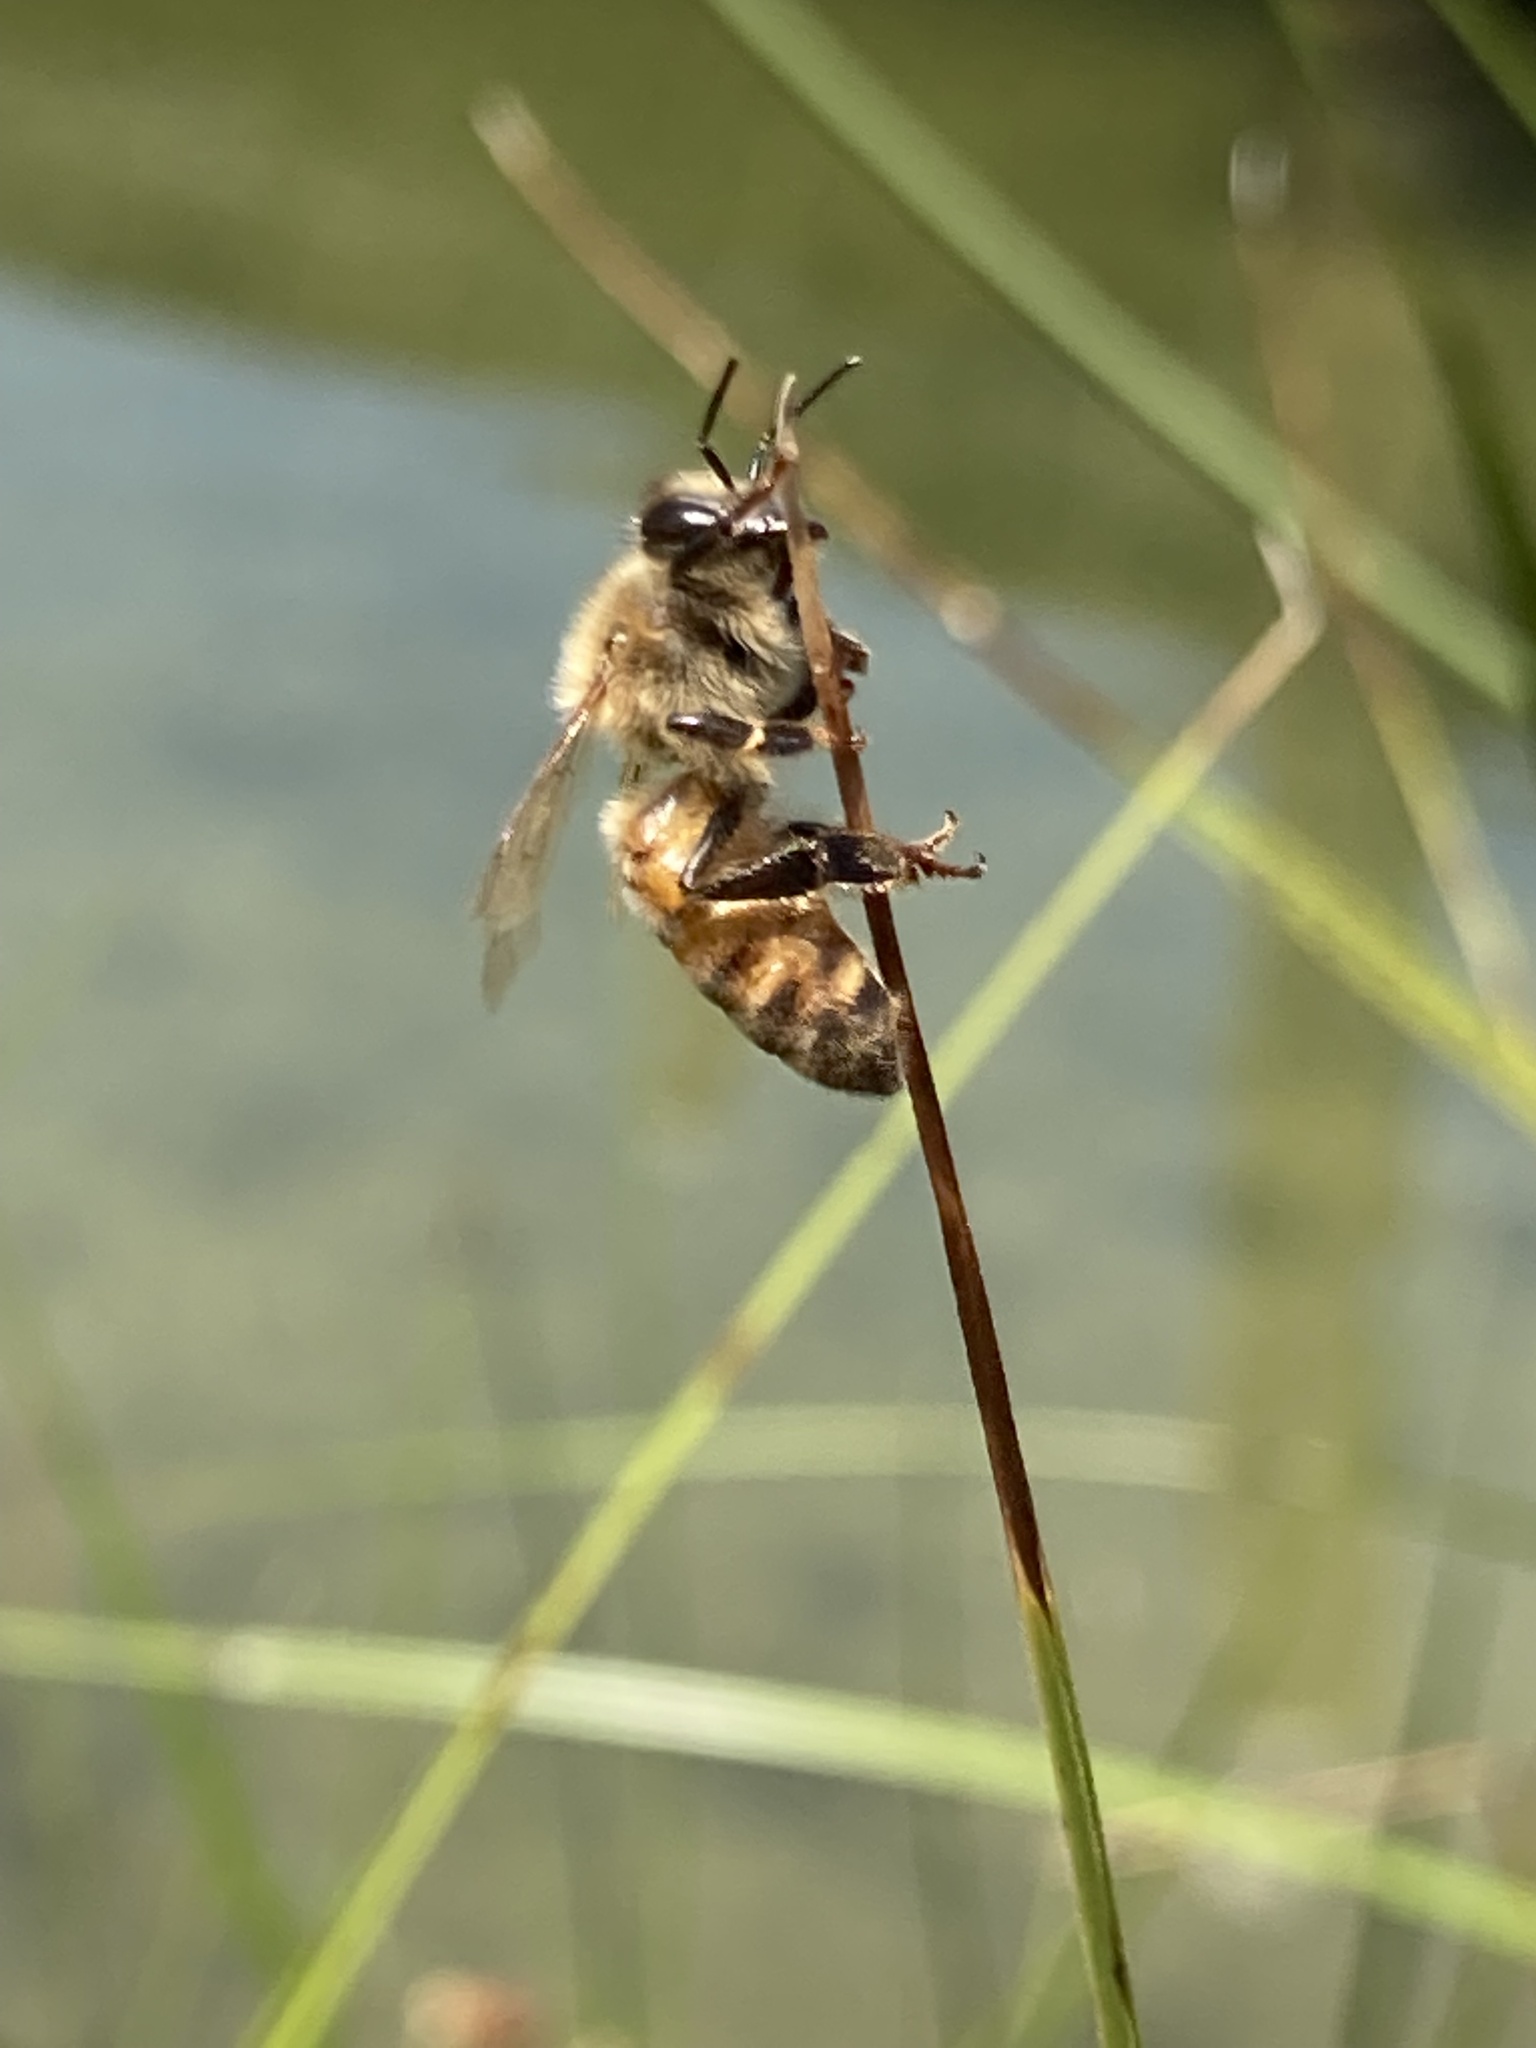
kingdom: Animalia
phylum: Arthropoda
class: Insecta
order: Hymenoptera
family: Apidae
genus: Apis
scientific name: Apis mellifera
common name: Honey bee
